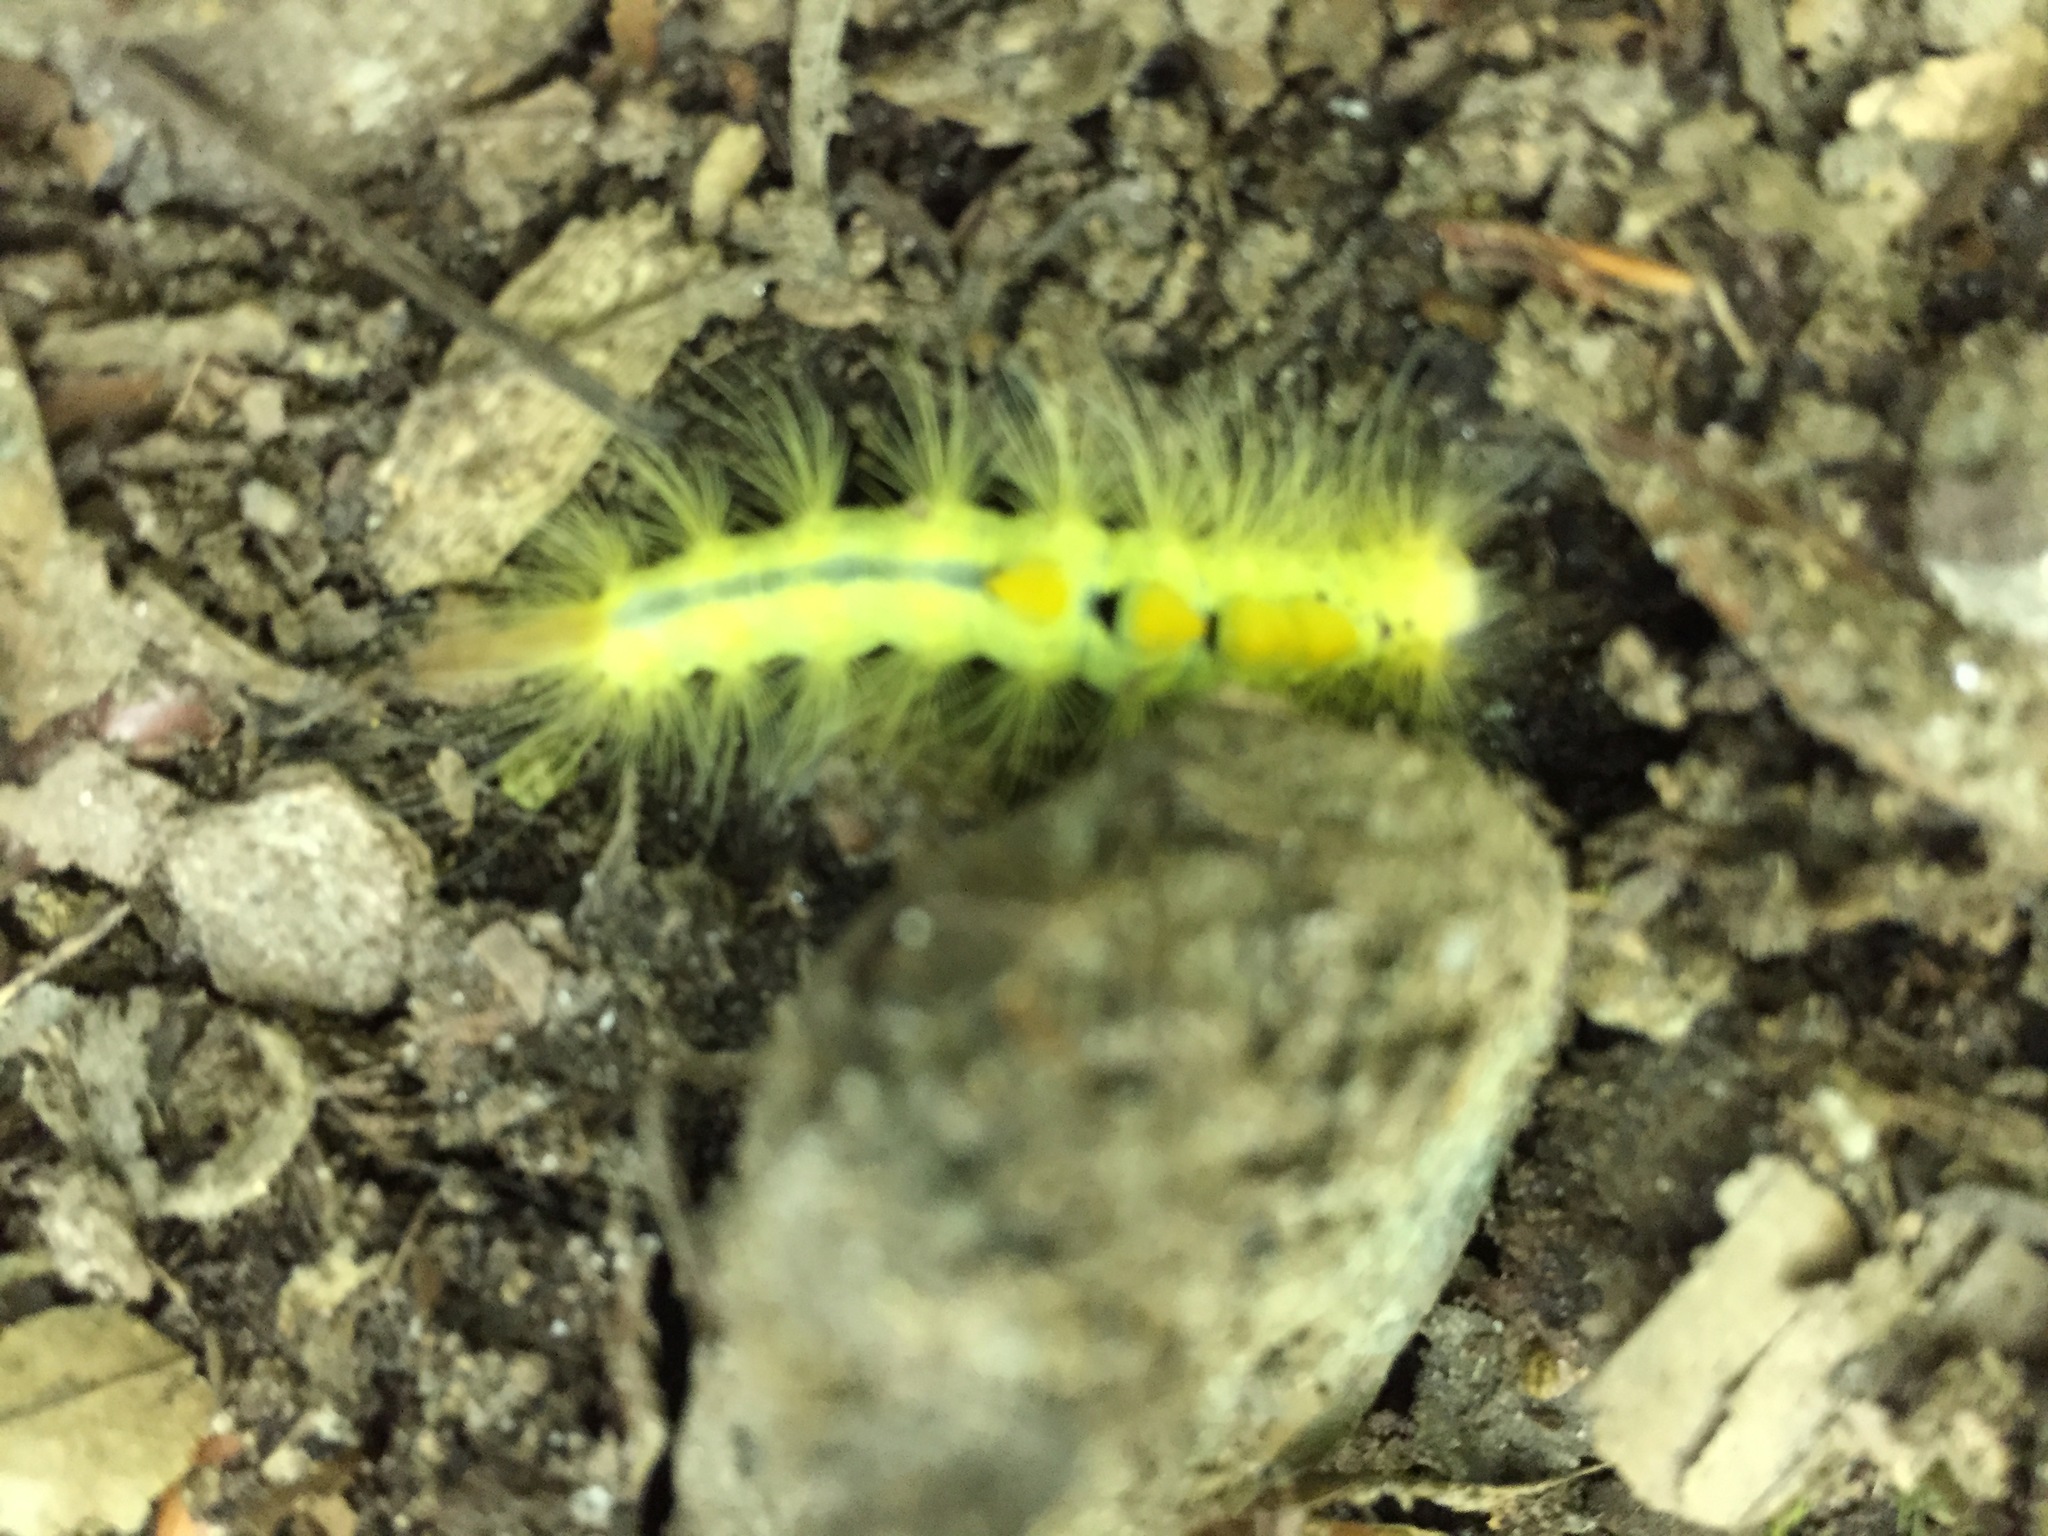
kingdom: Animalia
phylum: Arthropoda
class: Insecta
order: Lepidoptera
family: Erebidae
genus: Orgyia
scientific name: Orgyia definita
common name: Definite tussock moth
